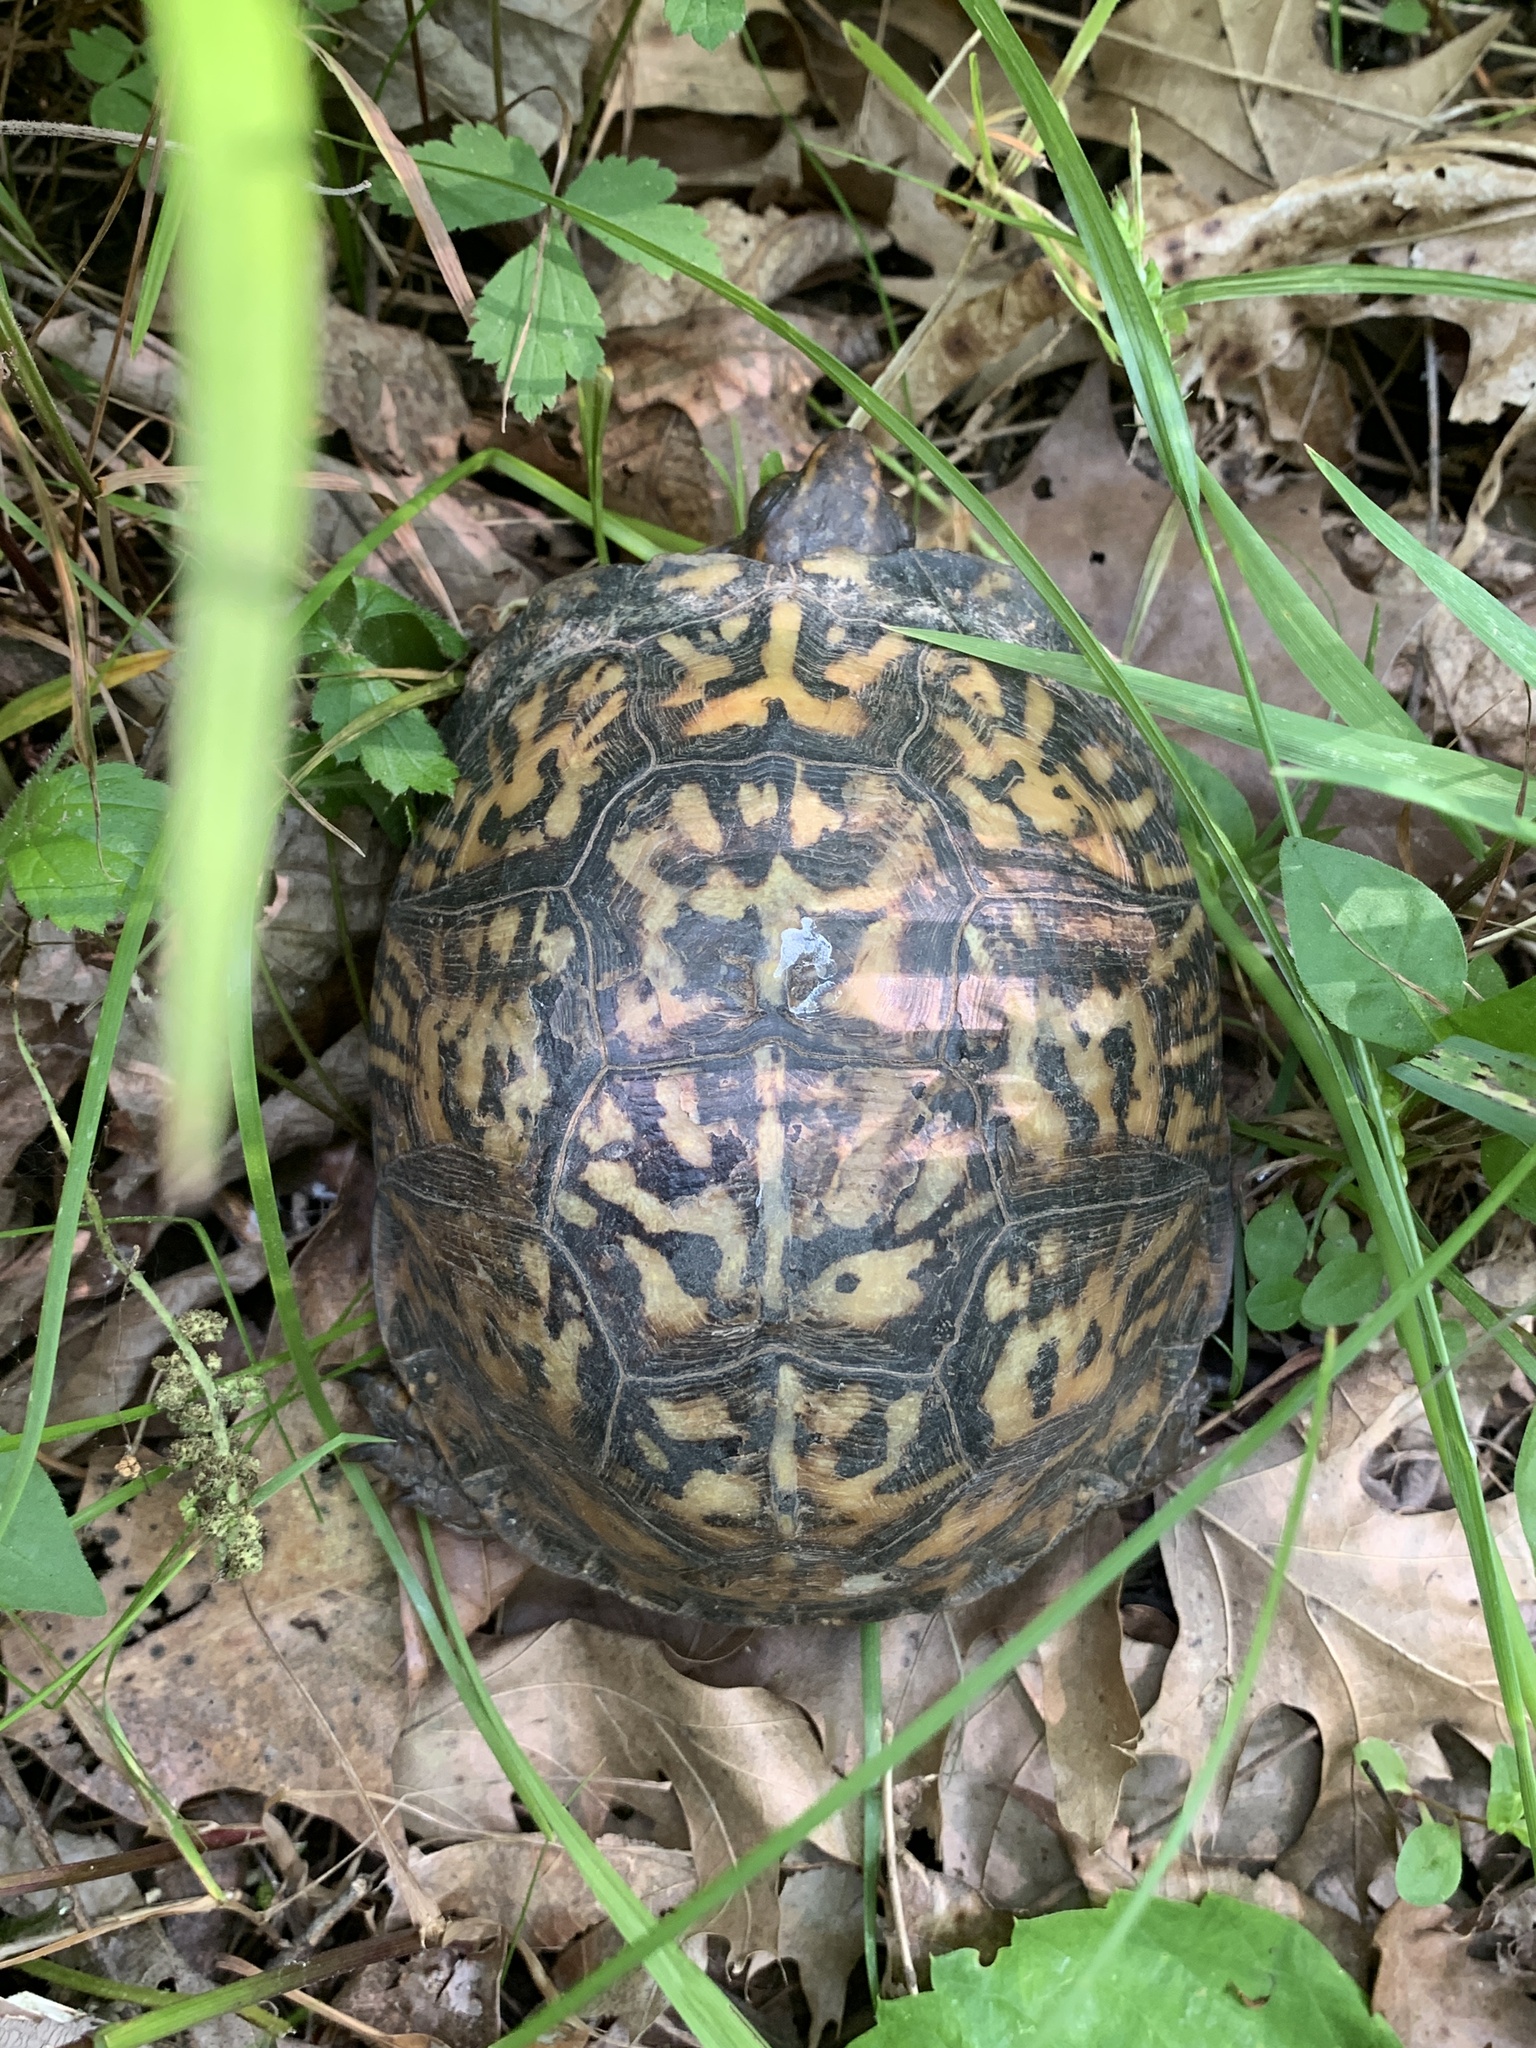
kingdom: Animalia
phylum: Chordata
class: Testudines
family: Emydidae
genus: Terrapene
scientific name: Terrapene carolina
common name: Common box turtle
